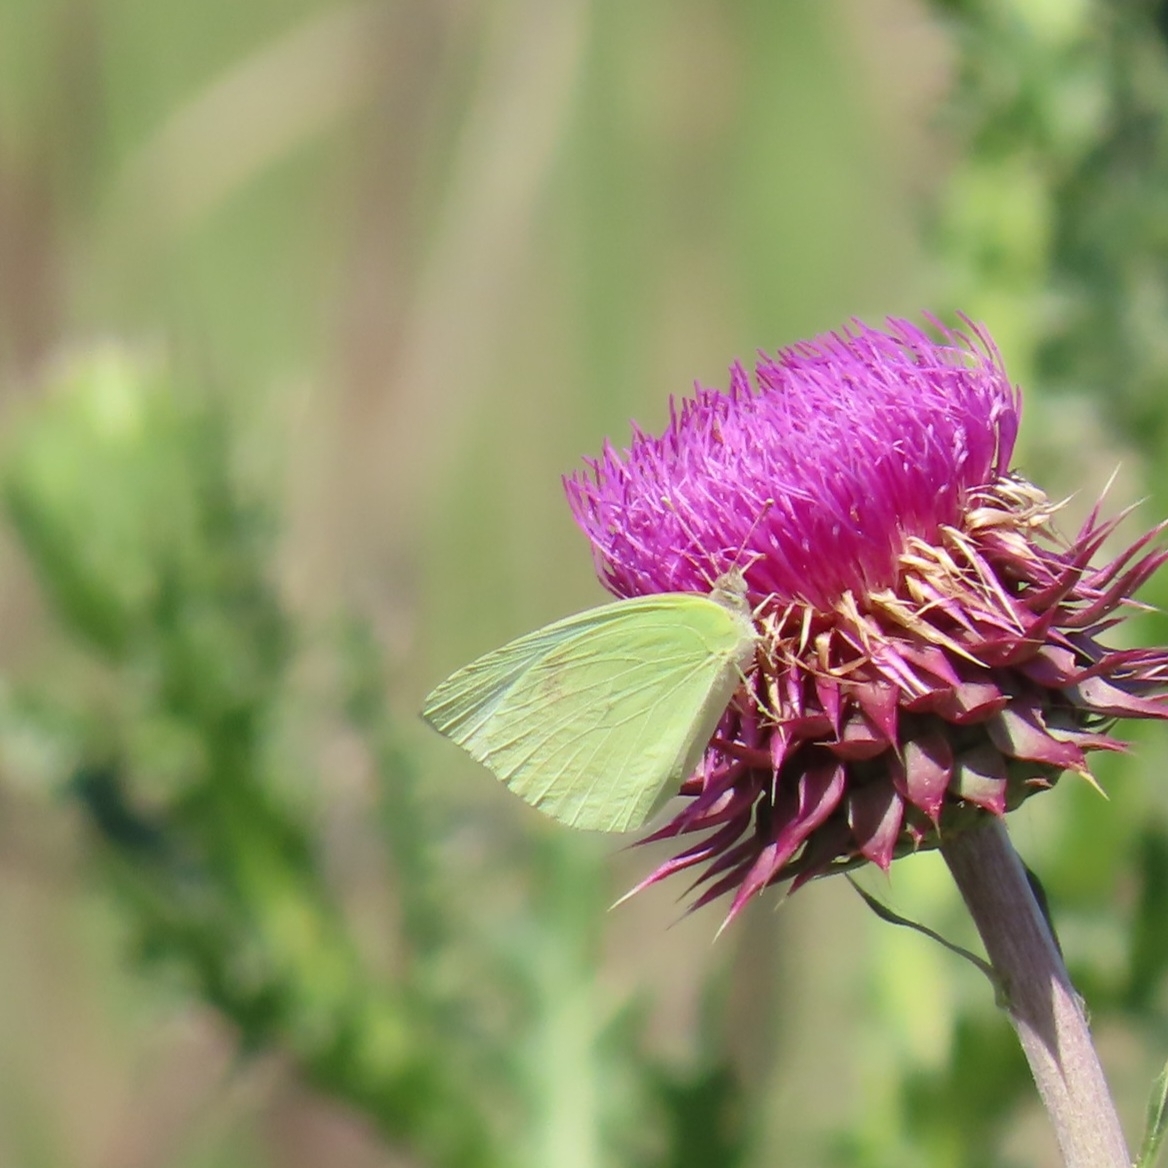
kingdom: Animalia
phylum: Arthropoda
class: Insecta
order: Lepidoptera
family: Pieridae
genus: Kricogonia
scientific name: Kricogonia lyside
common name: Guayacan sulphur,
